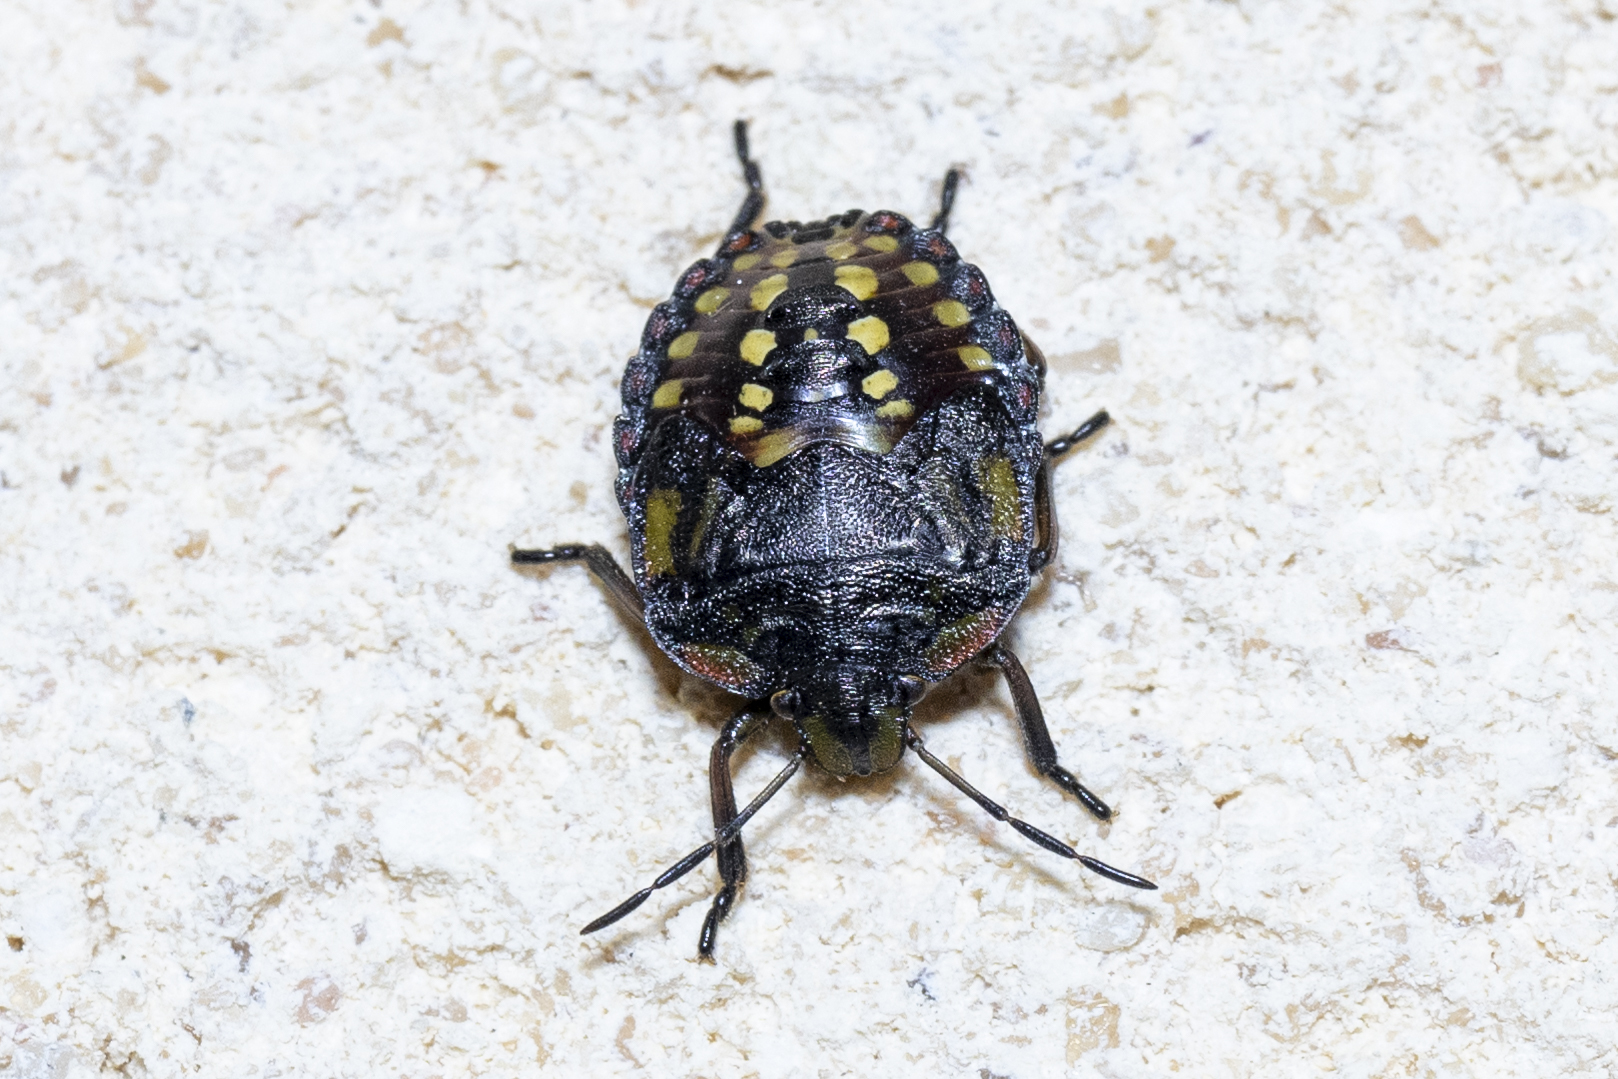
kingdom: Animalia
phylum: Arthropoda
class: Insecta
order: Hemiptera
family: Pentatomidae
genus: Nezara
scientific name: Nezara viridula
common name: Southern green stink bug
